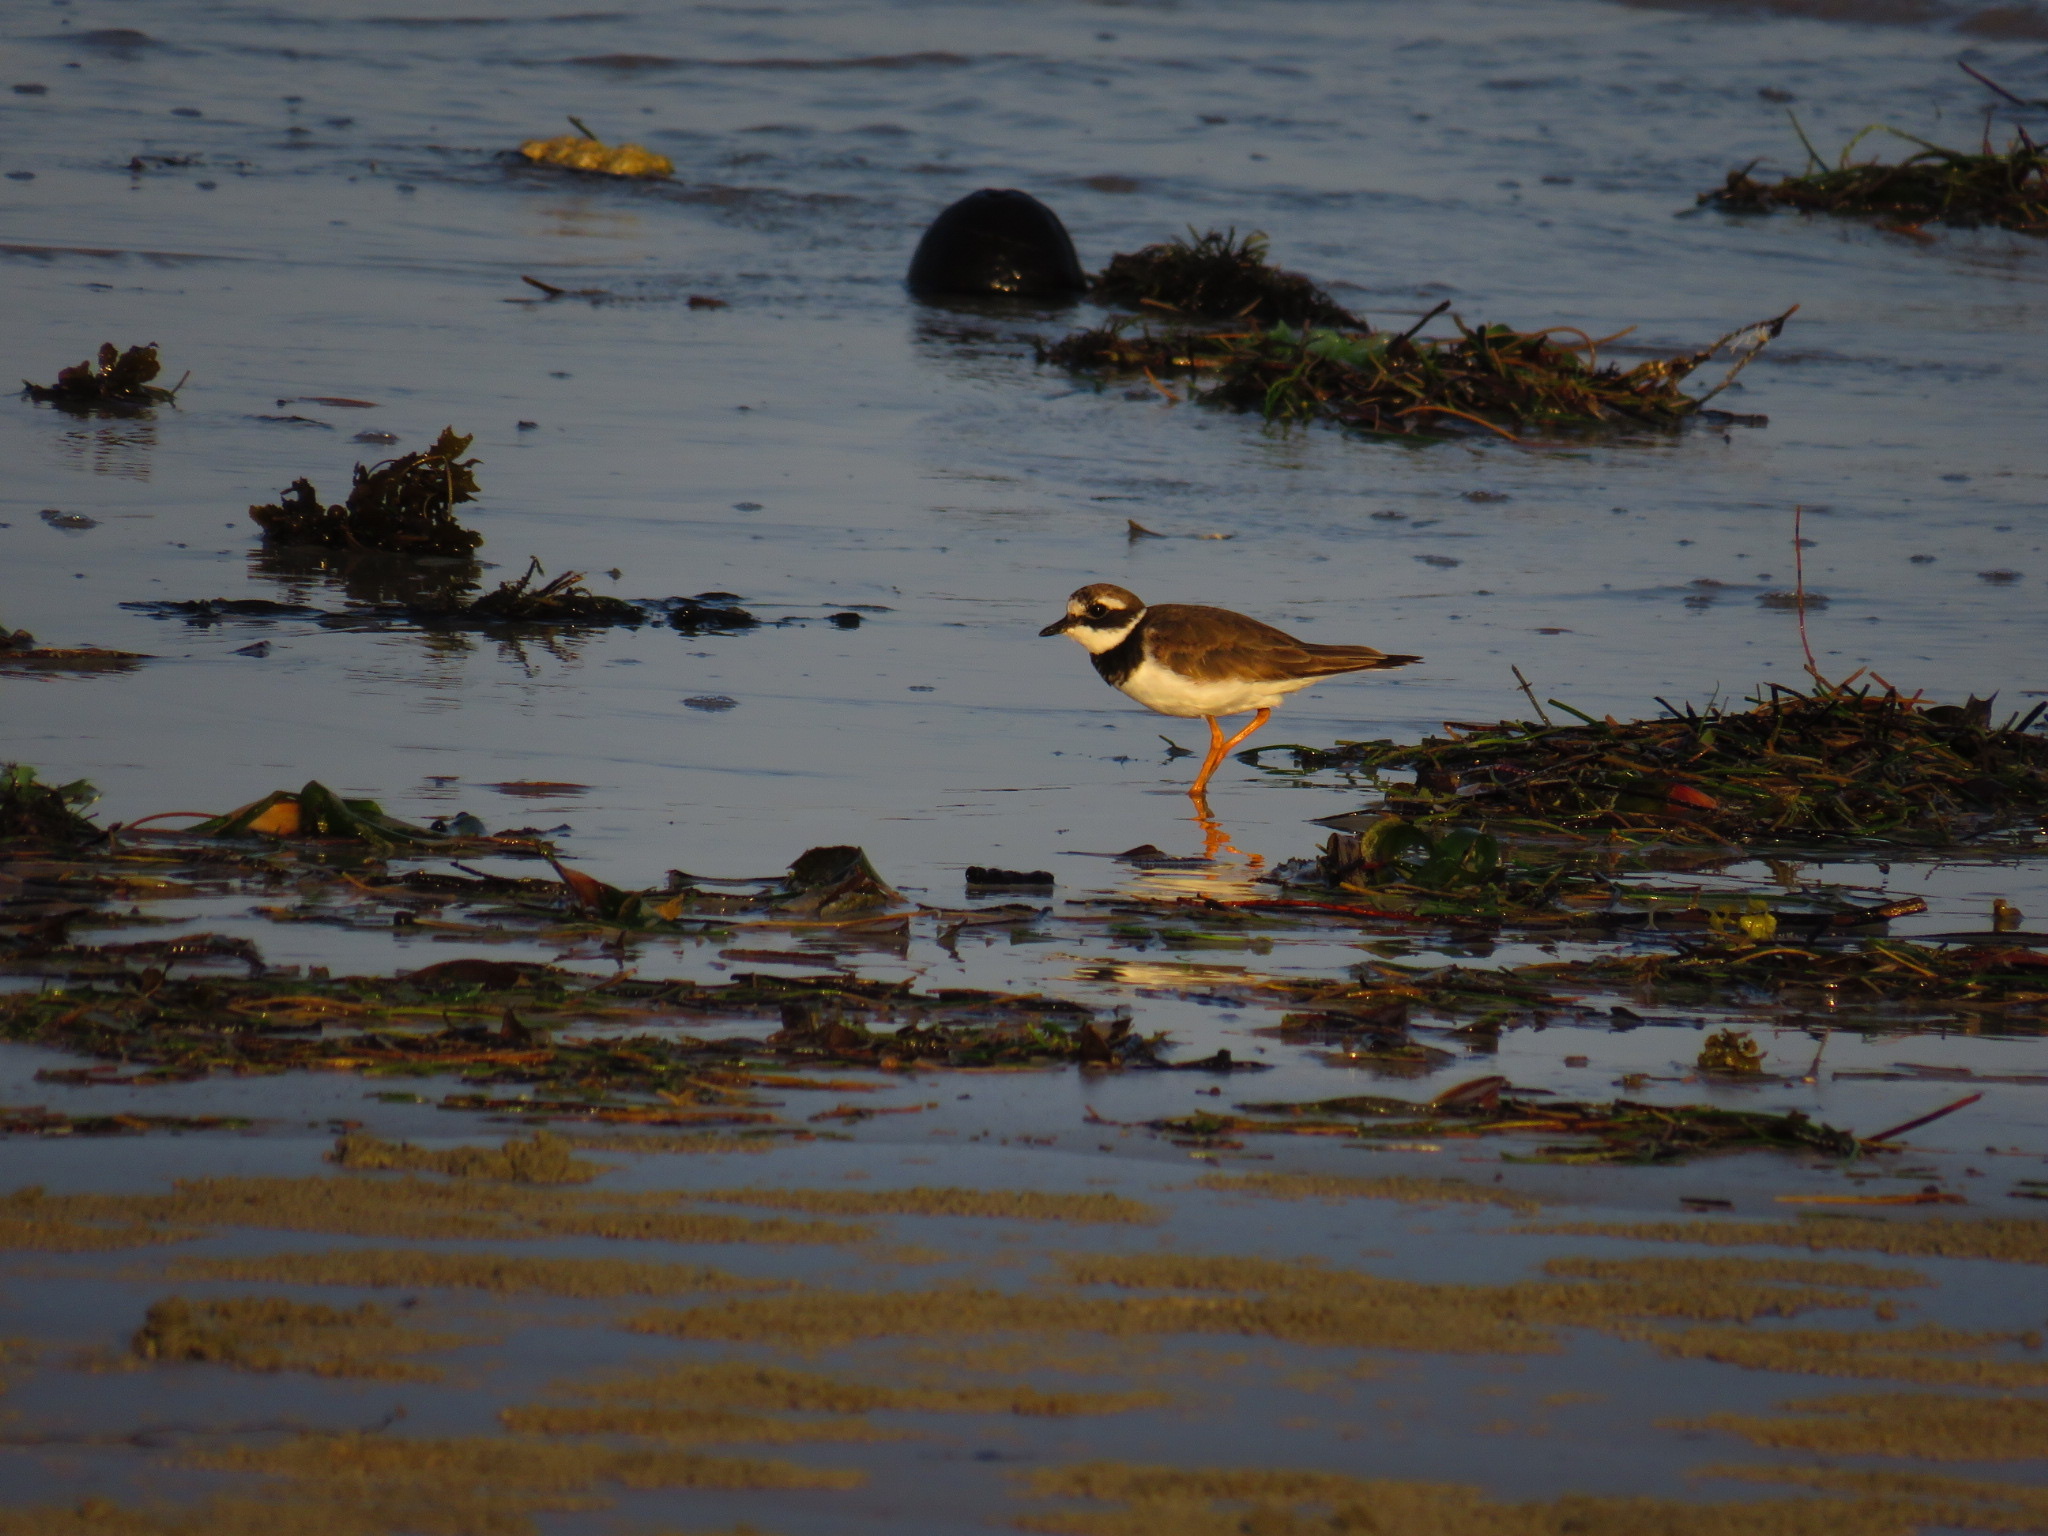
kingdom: Animalia
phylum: Chordata
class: Aves
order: Charadriiformes
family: Charadriidae
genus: Charadrius
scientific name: Charadrius hiaticula
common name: Common ringed plover
